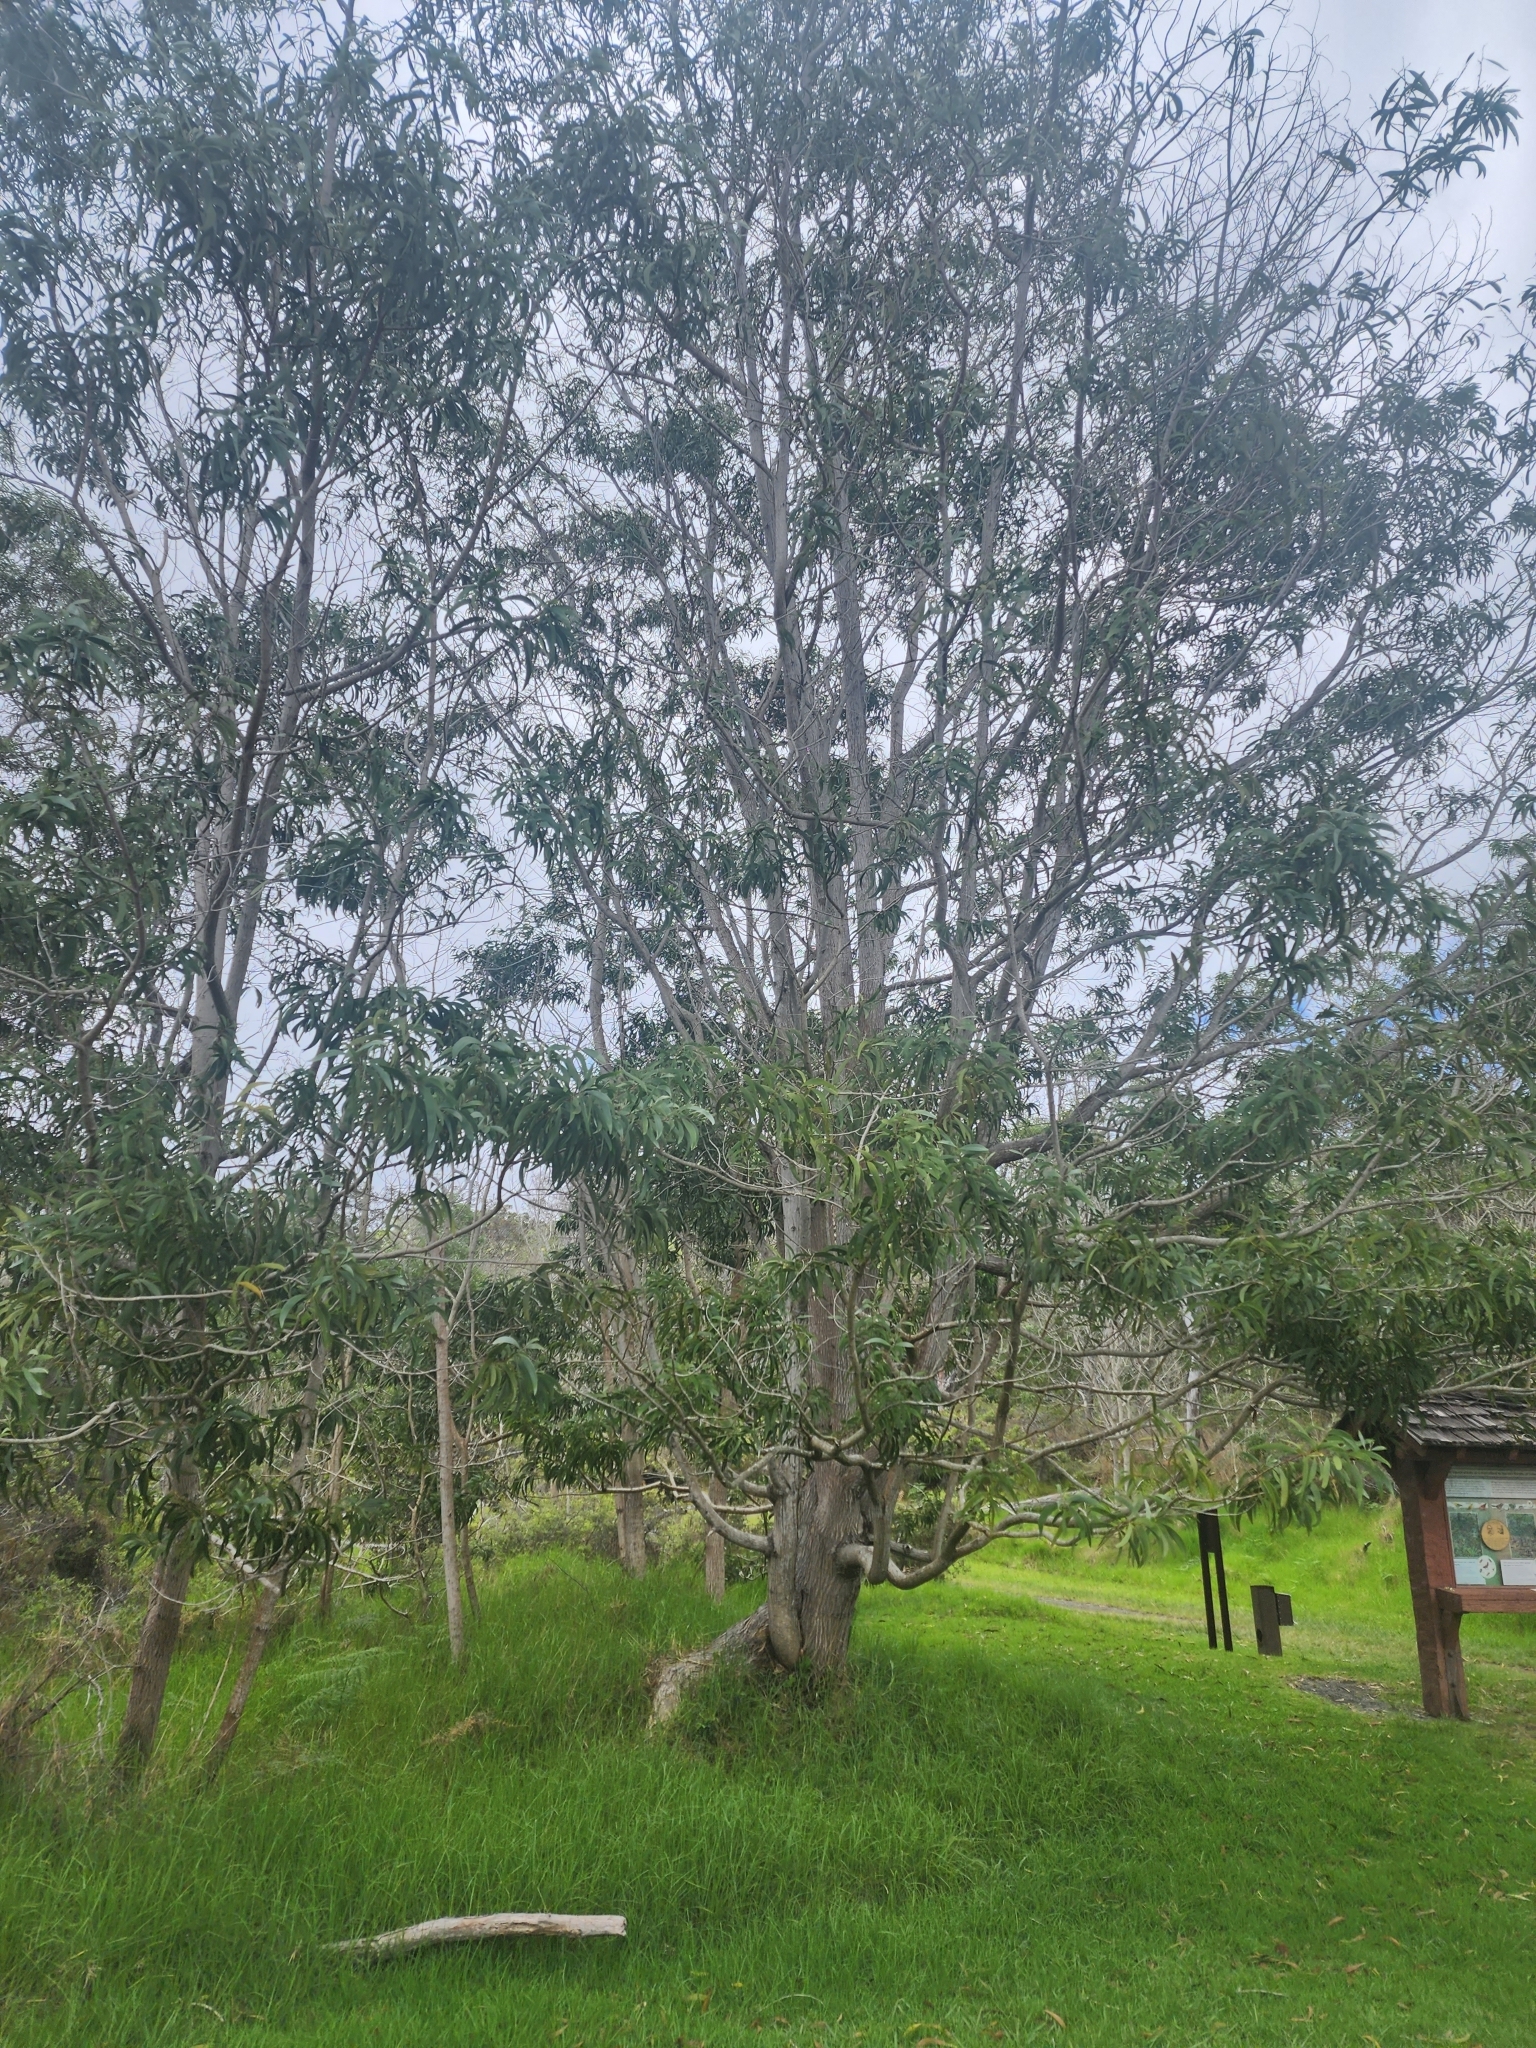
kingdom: Plantae
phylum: Tracheophyta
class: Magnoliopsida
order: Fabales
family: Fabaceae
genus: Acacia
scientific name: Acacia koa
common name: Gray koa
